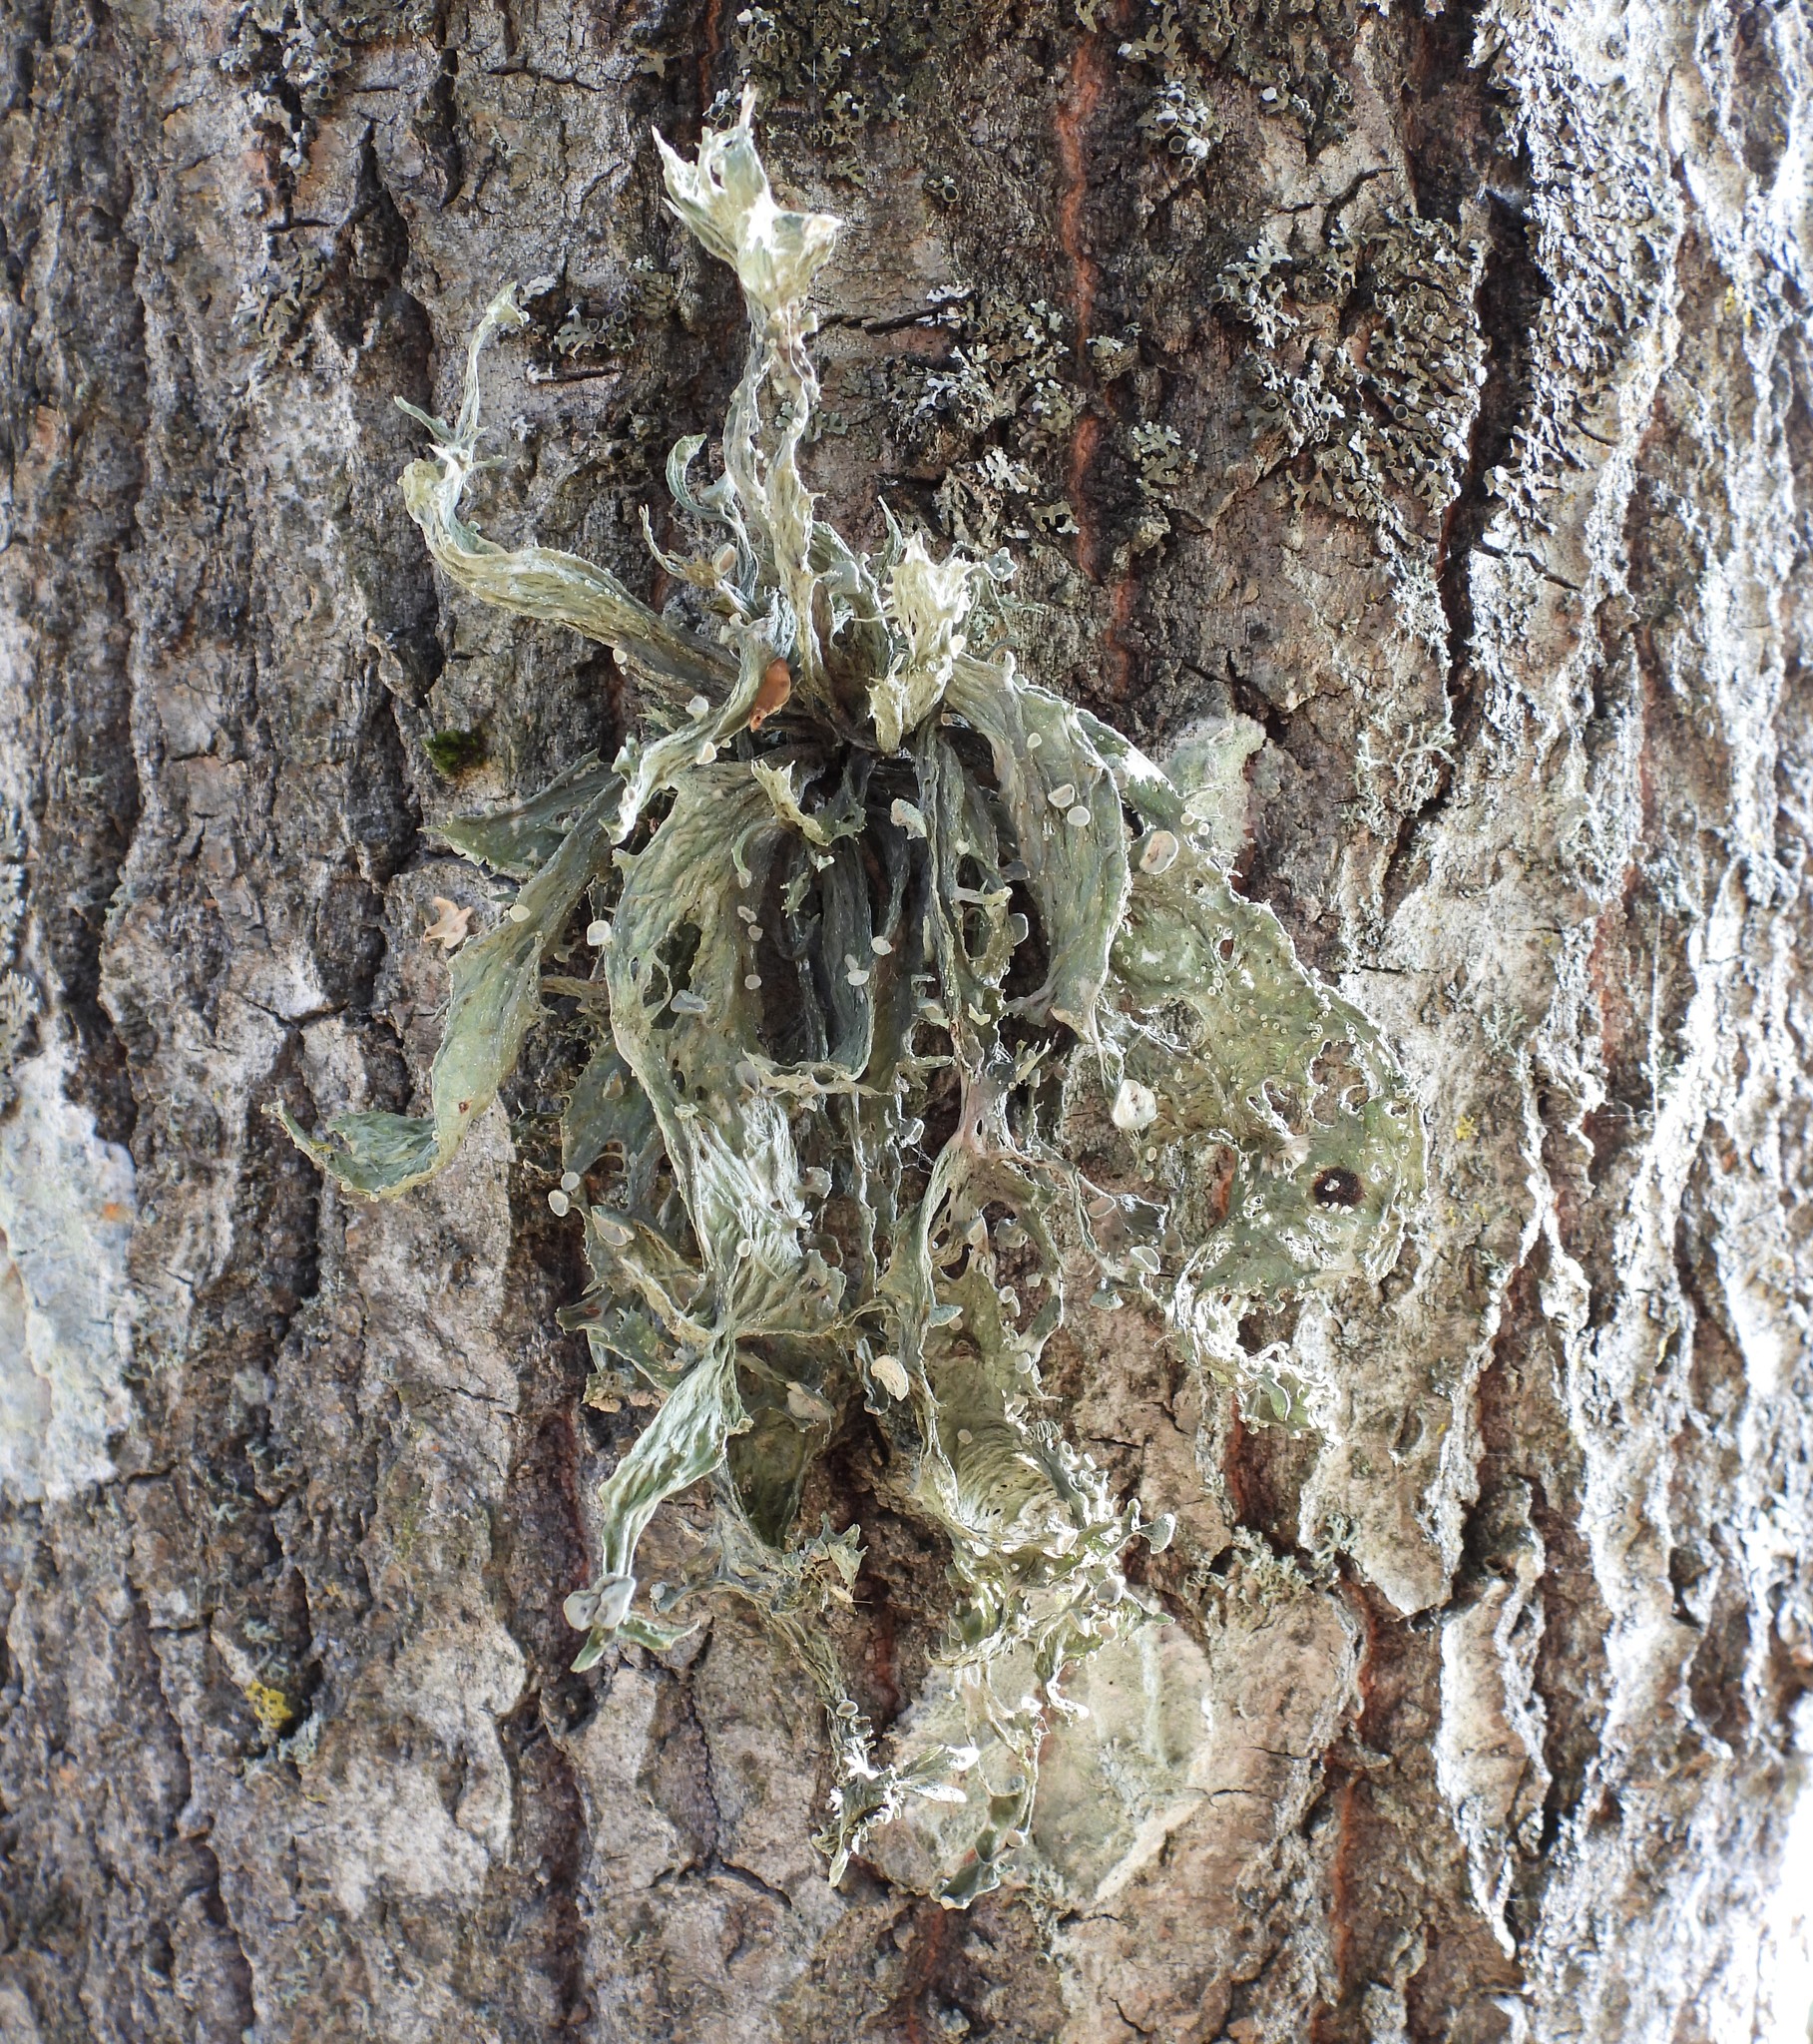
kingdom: Fungi
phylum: Ascomycota
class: Lecanoromycetes
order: Lecanorales
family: Ramalinaceae
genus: Ramalina
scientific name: Ramalina fraxinea
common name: Cartilage lichen
